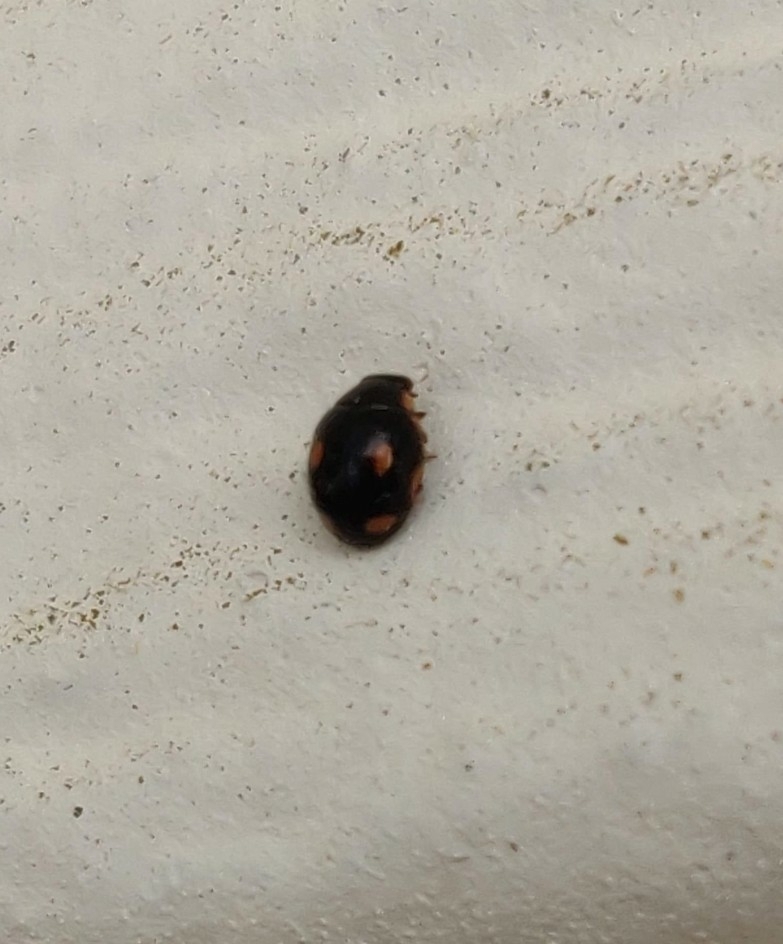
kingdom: Animalia
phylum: Arthropoda
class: Insecta
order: Coleoptera
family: Coccinellidae
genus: Hyperaspis
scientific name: Hyperaspis quadrioculata
